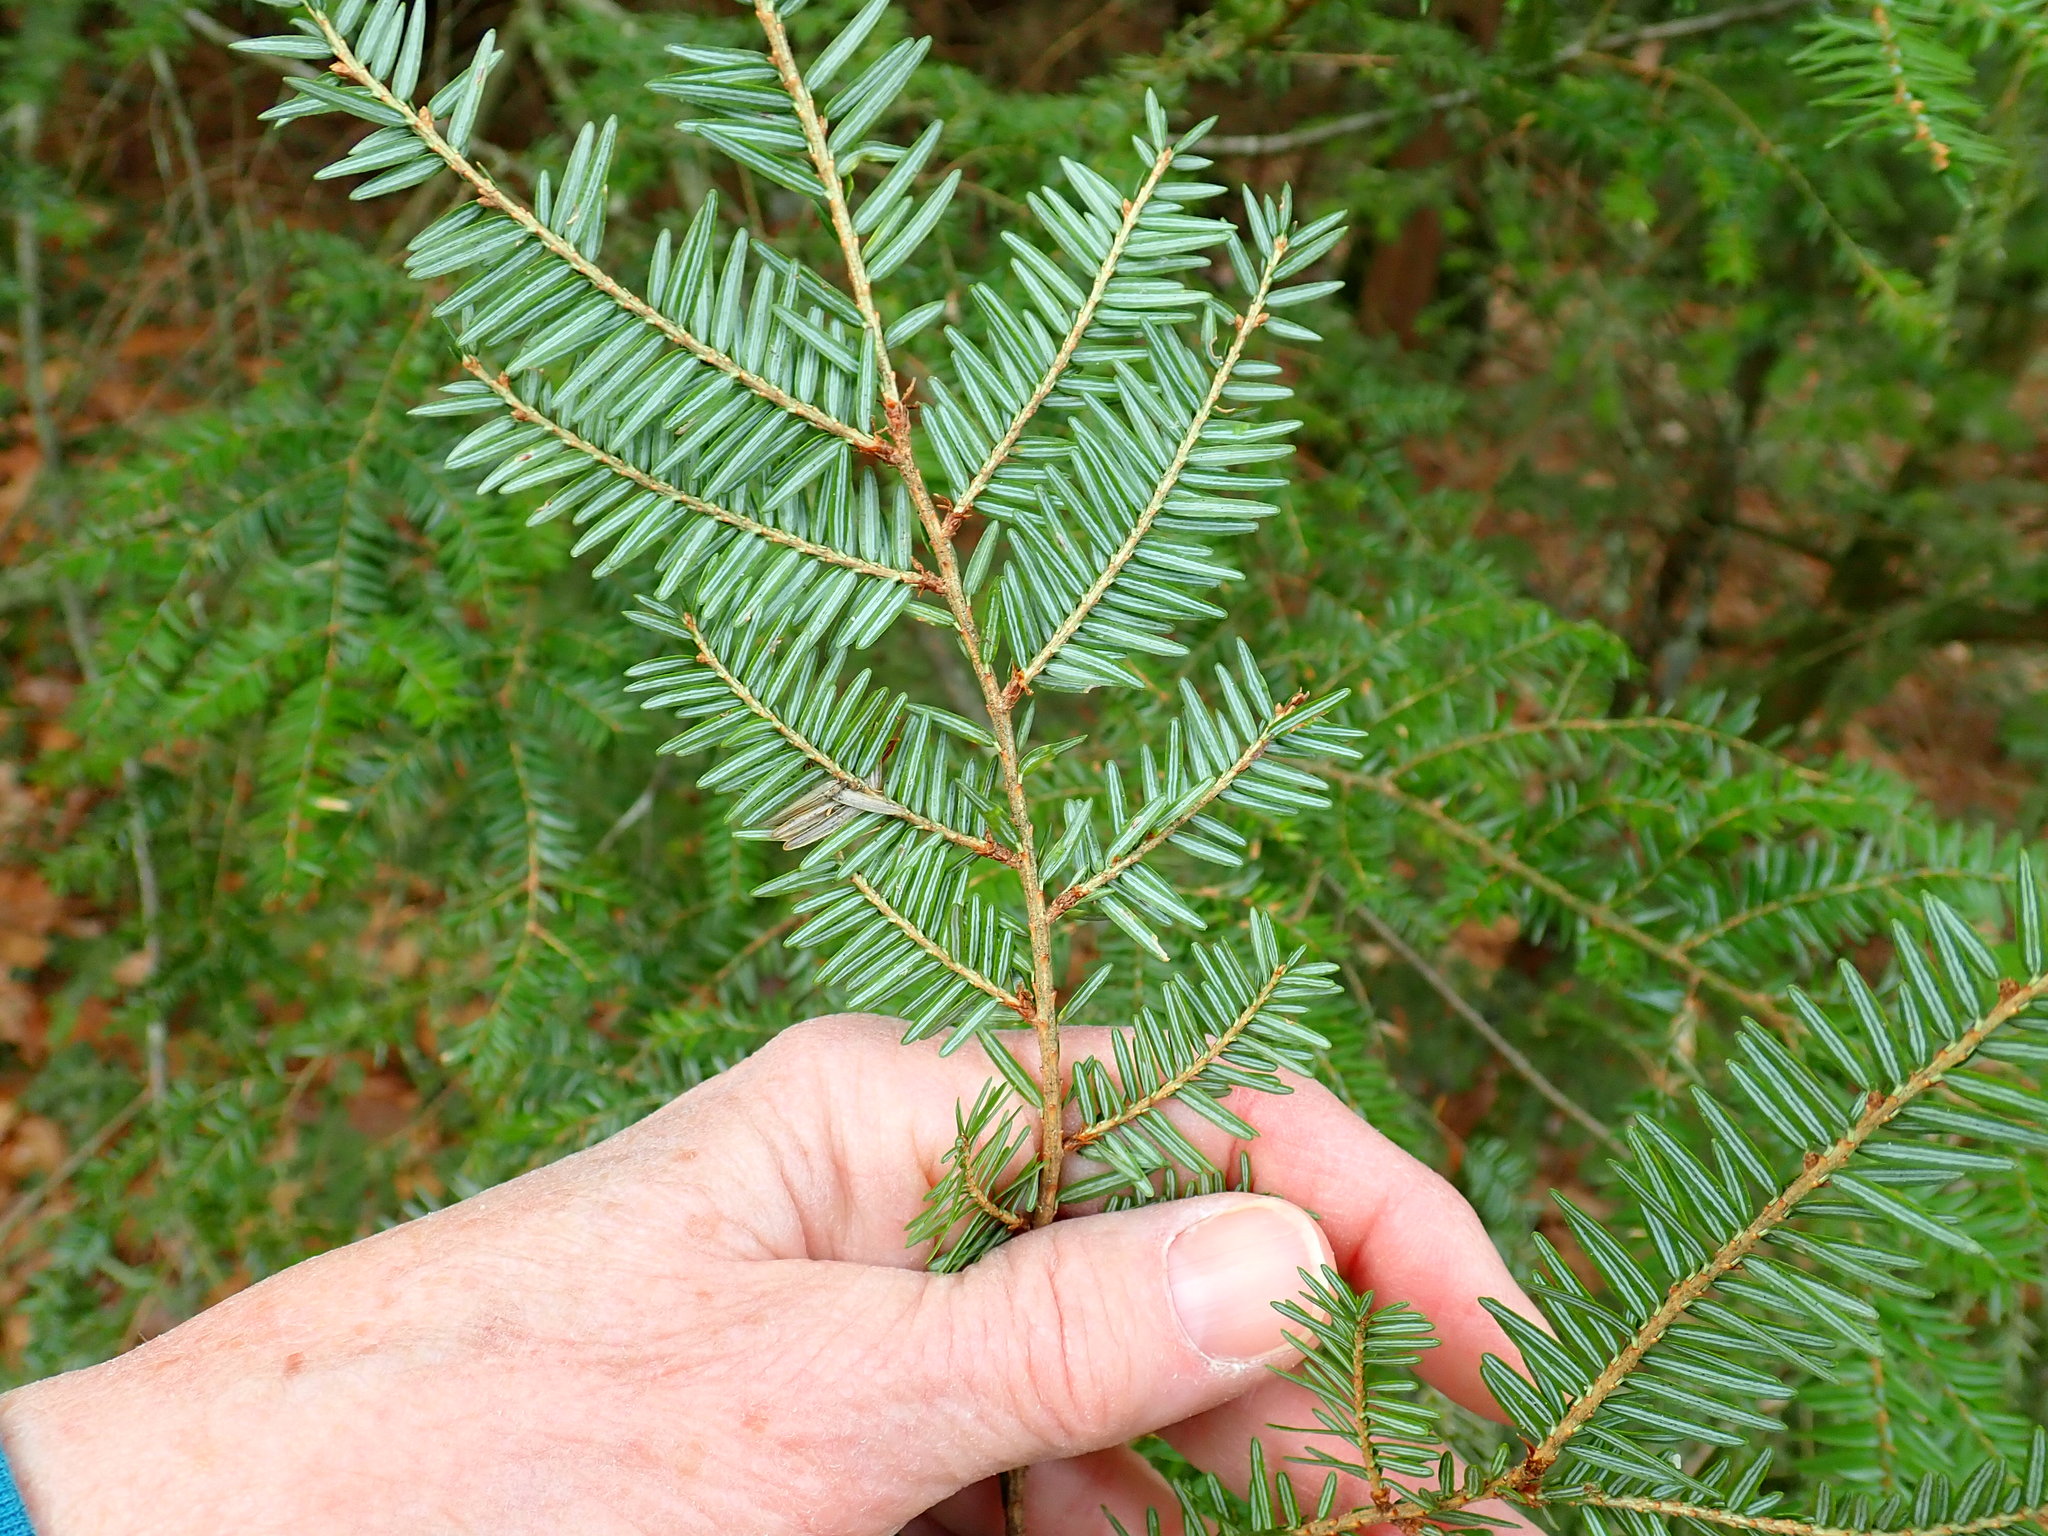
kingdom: Plantae
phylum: Tracheophyta
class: Pinopsida
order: Pinales
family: Pinaceae
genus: Tsuga
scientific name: Tsuga canadensis
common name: Eastern hemlock
